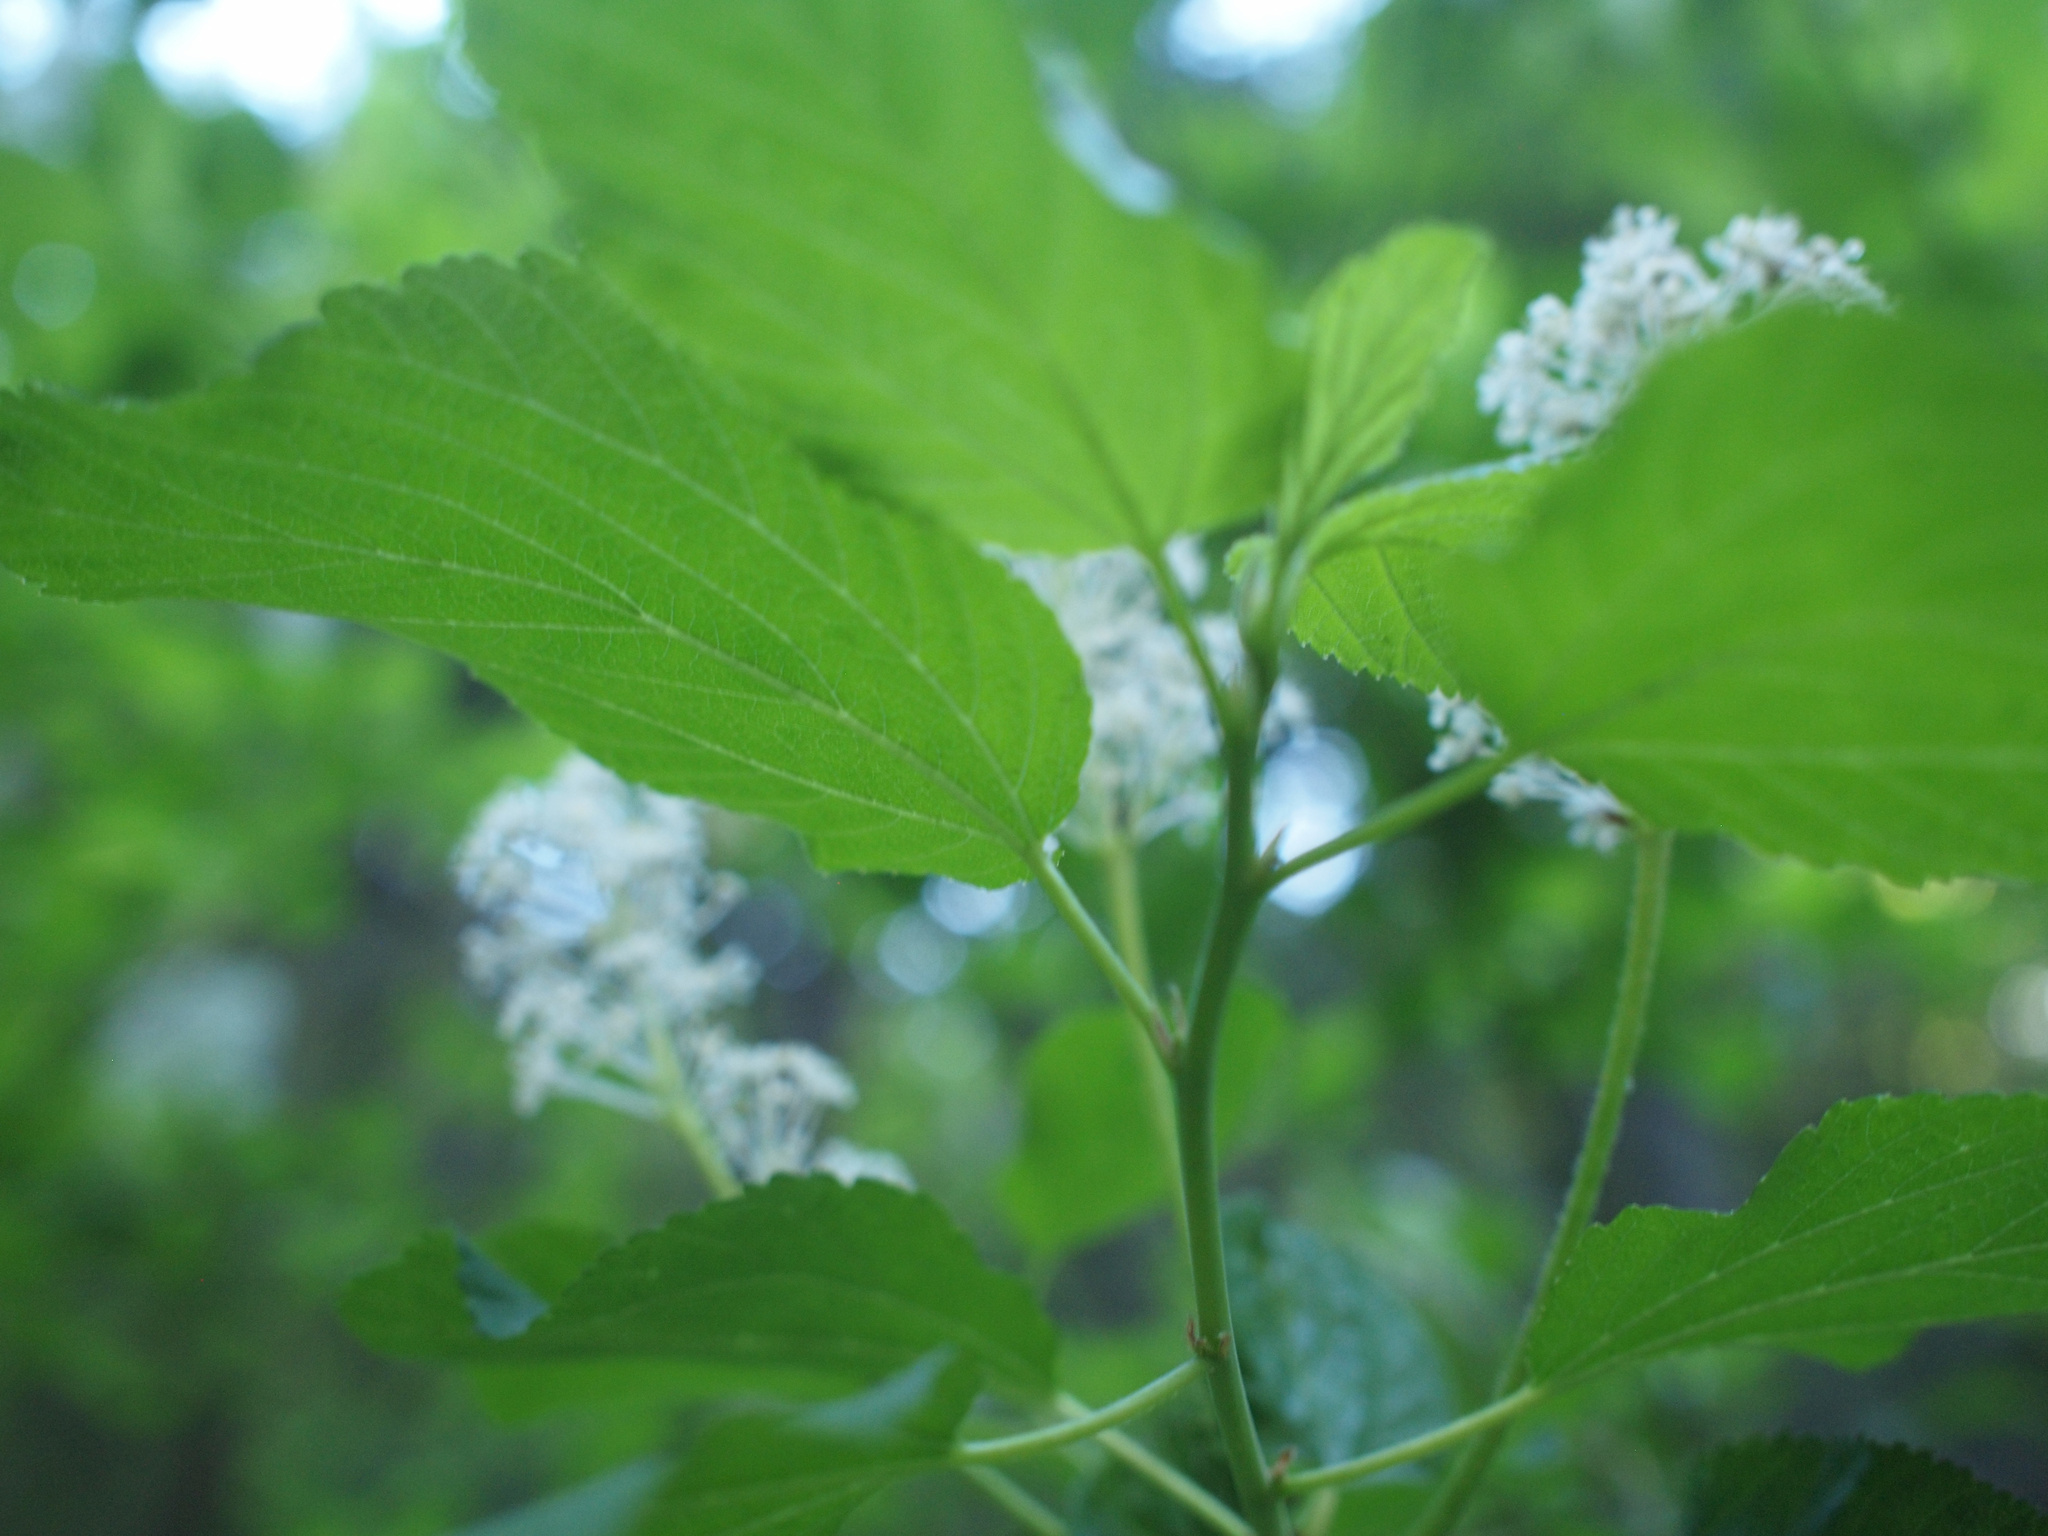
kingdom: Plantae
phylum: Tracheophyta
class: Magnoliopsida
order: Rosales
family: Rhamnaceae
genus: Ceanothus
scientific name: Ceanothus sanguineus
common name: Teatree
